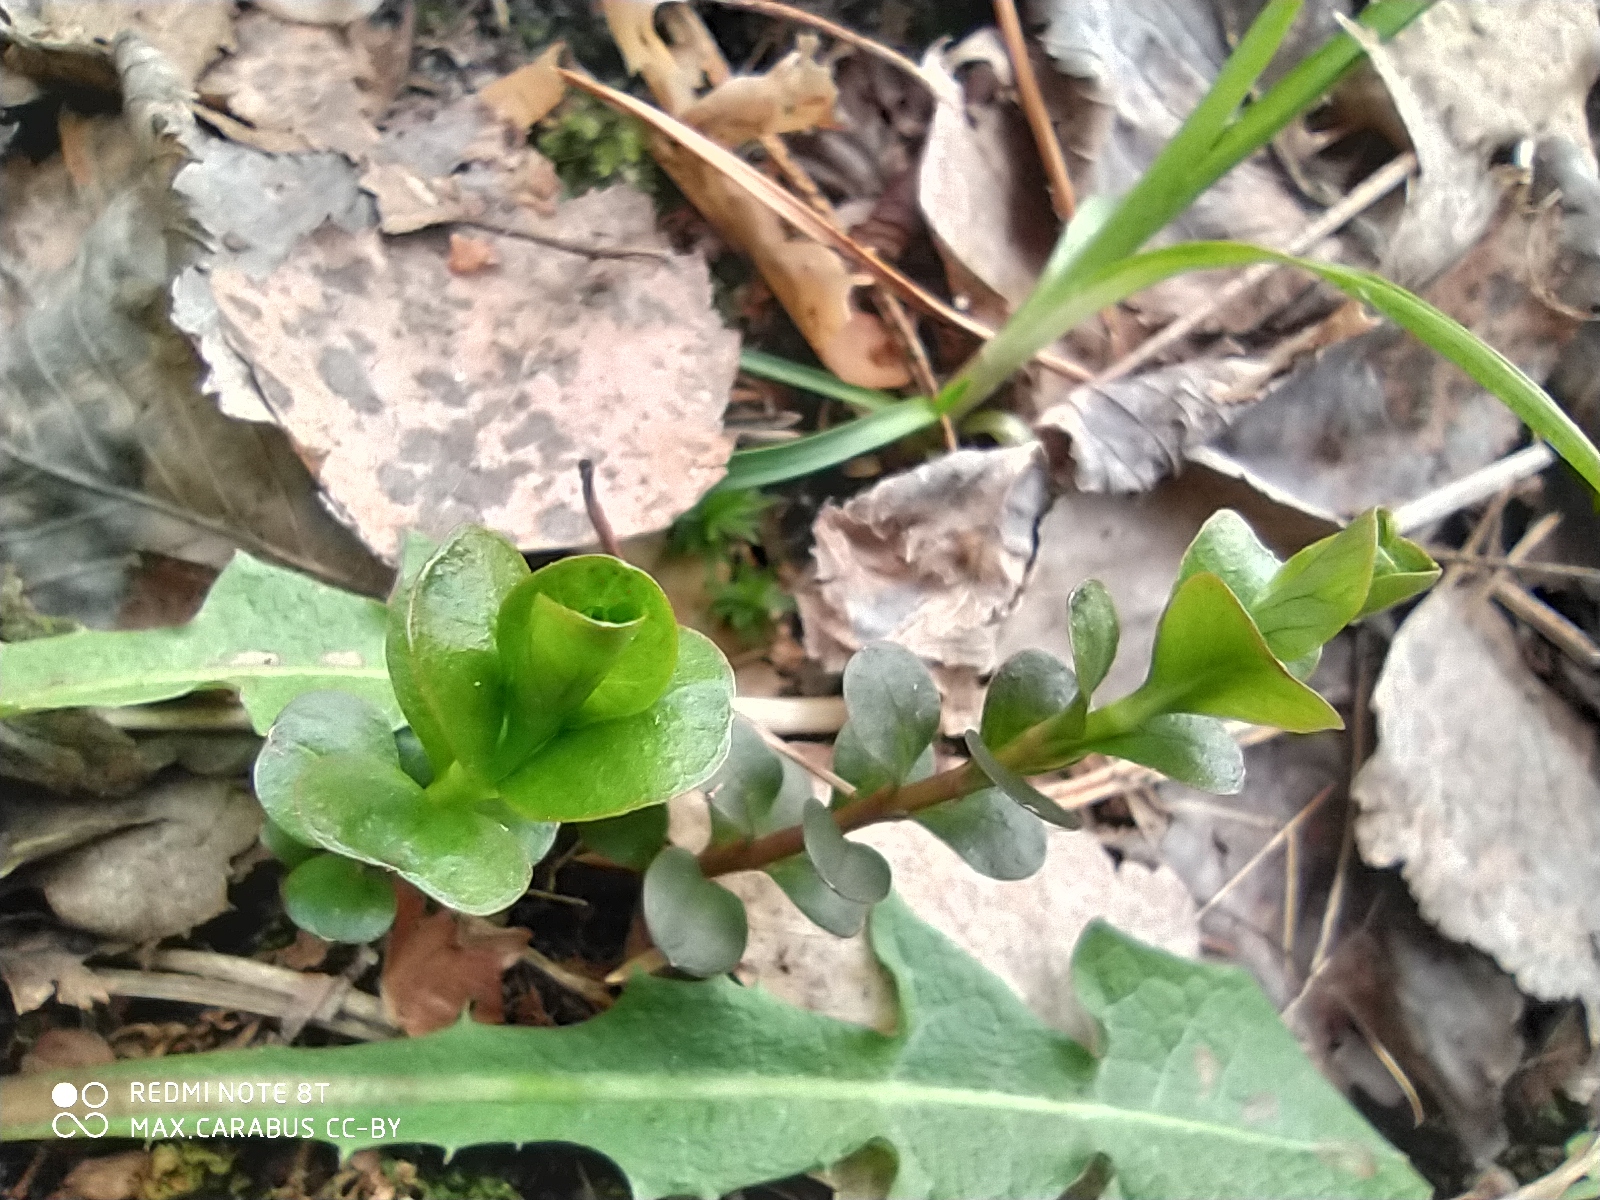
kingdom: Plantae
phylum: Tracheophyta
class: Magnoliopsida
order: Ericales
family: Primulaceae
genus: Lysimachia
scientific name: Lysimachia nummularia
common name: Moneywort
